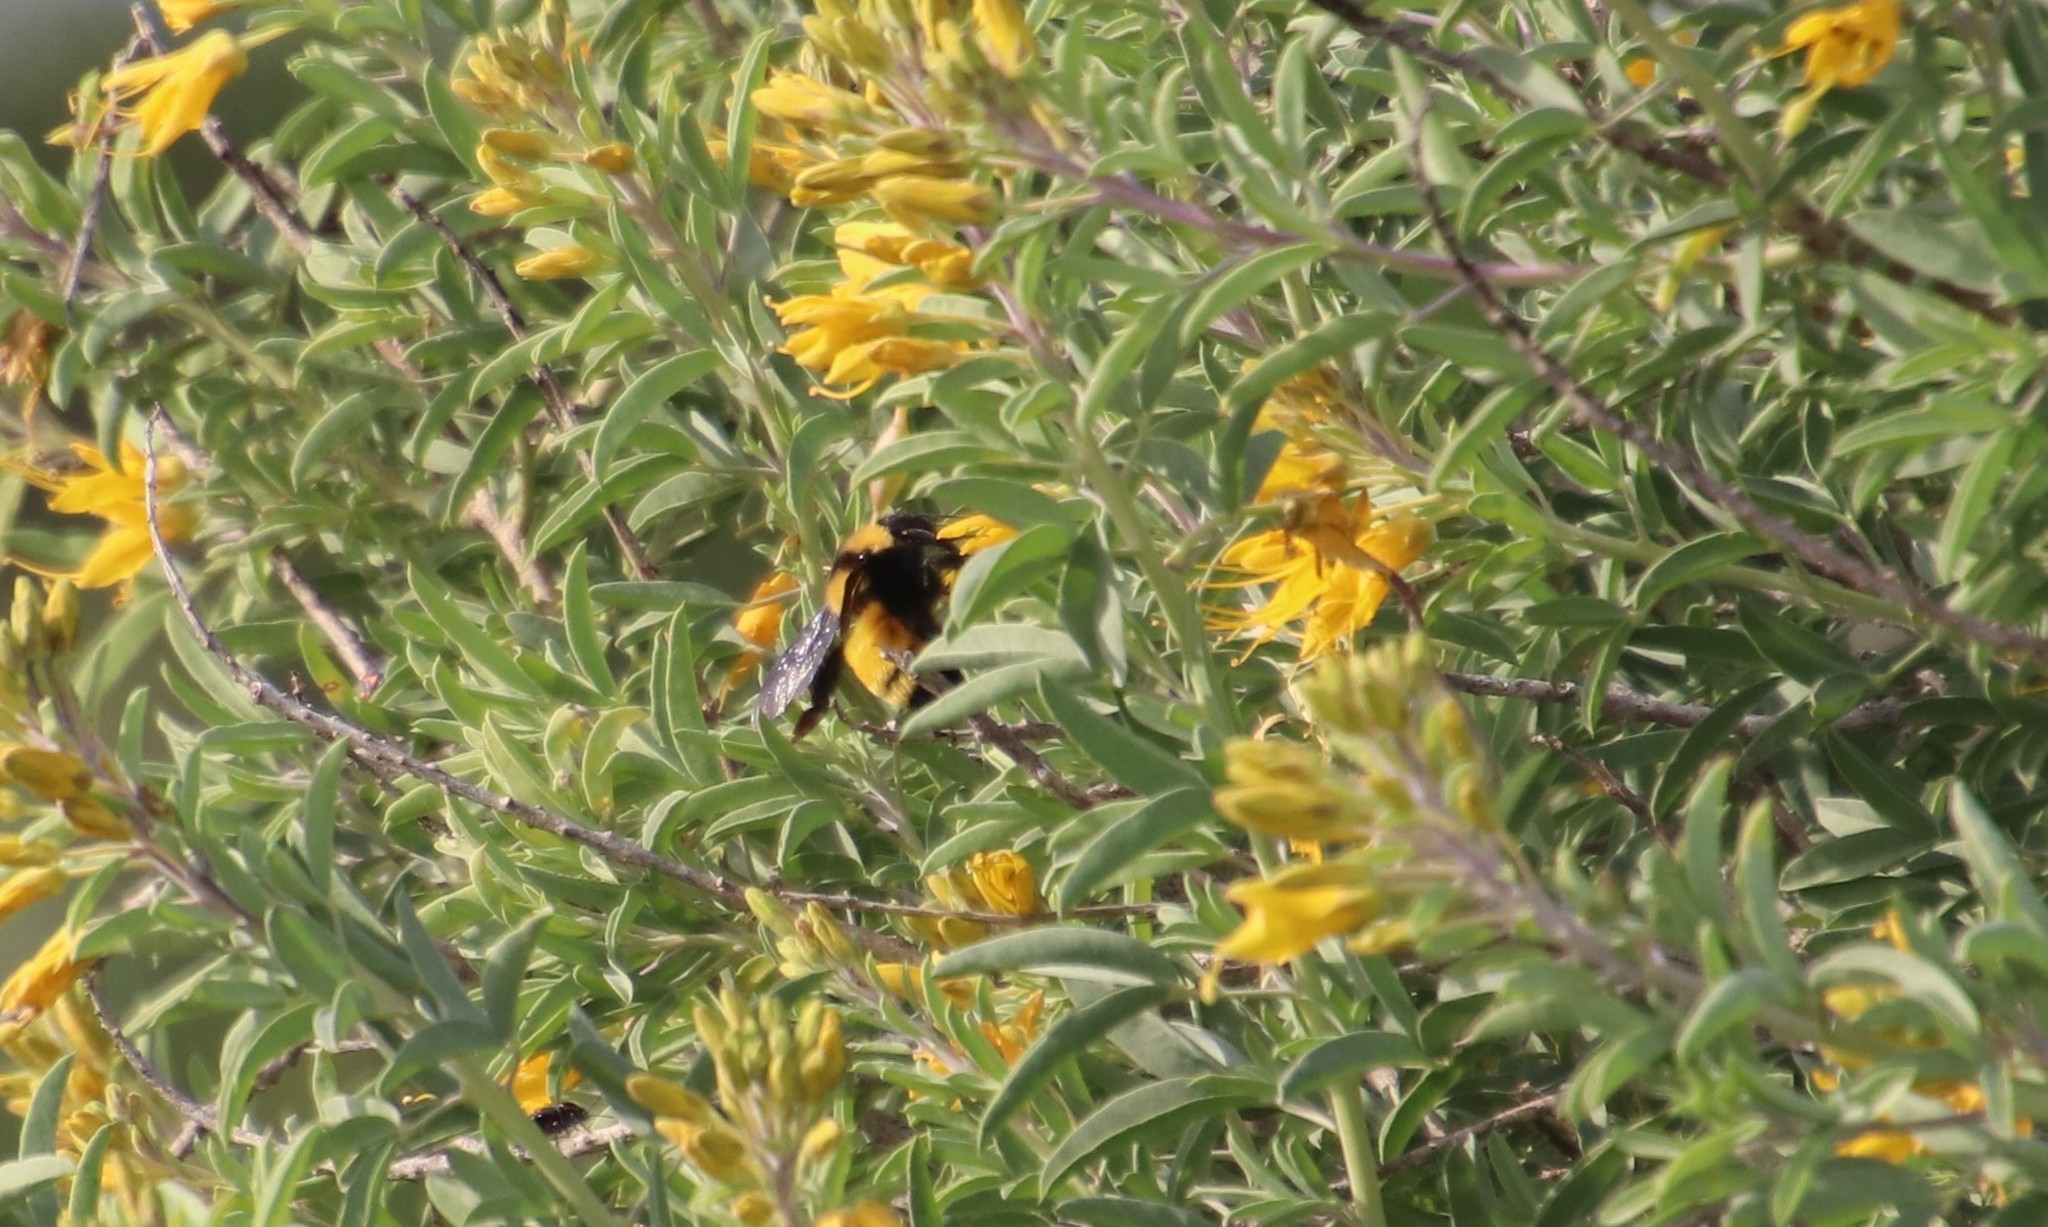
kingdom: Animalia
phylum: Arthropoda
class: Insecta
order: Hymenoptera
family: Apidae
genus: Bombus
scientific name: Bombus sonorus
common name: Sonoran bumble bee
